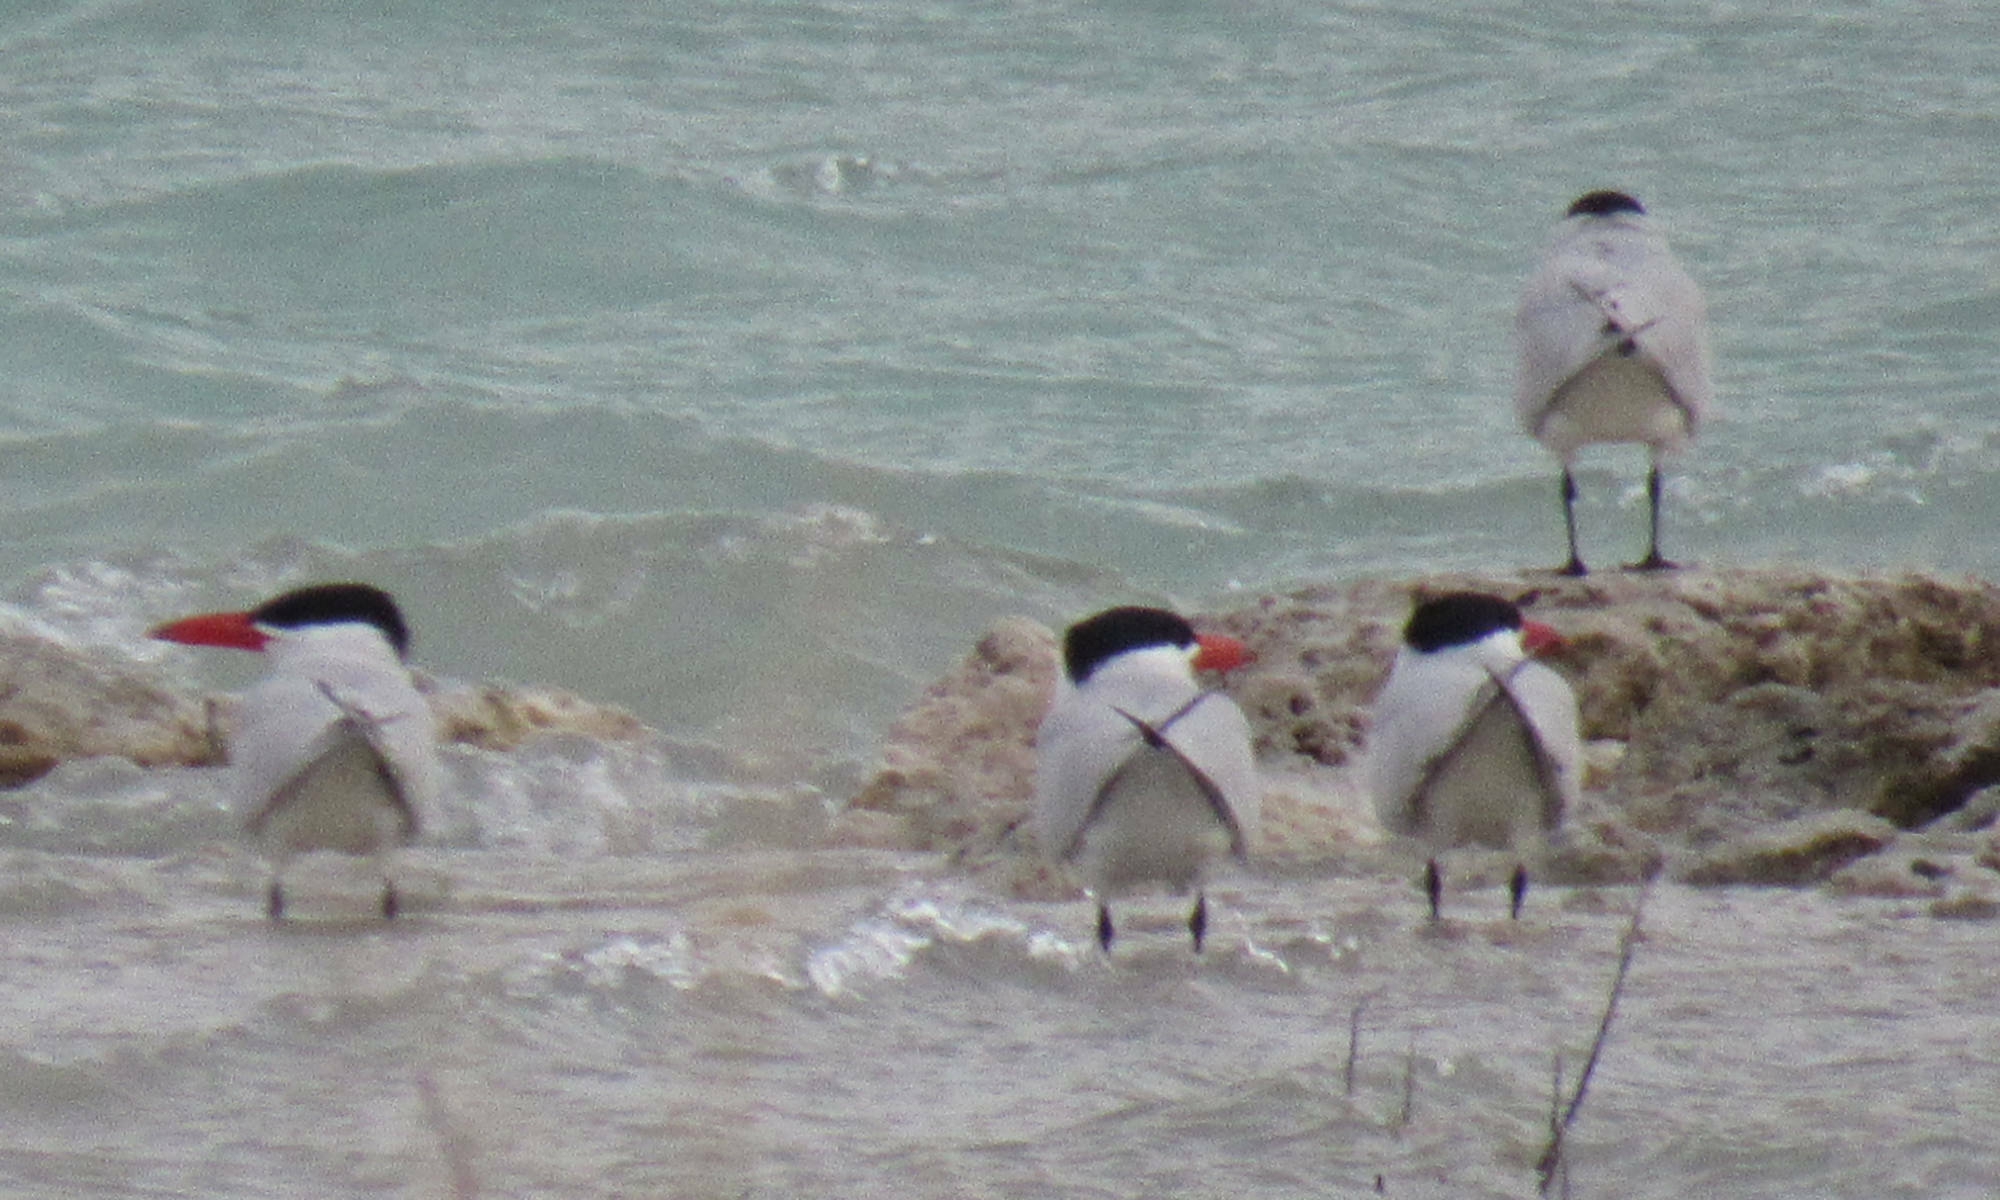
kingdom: Animalia
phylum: Chordata
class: Aves
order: Charadriiformes
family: Laridae
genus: Hydroprogne
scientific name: Hydroprogne caspia
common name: Caspian tern
